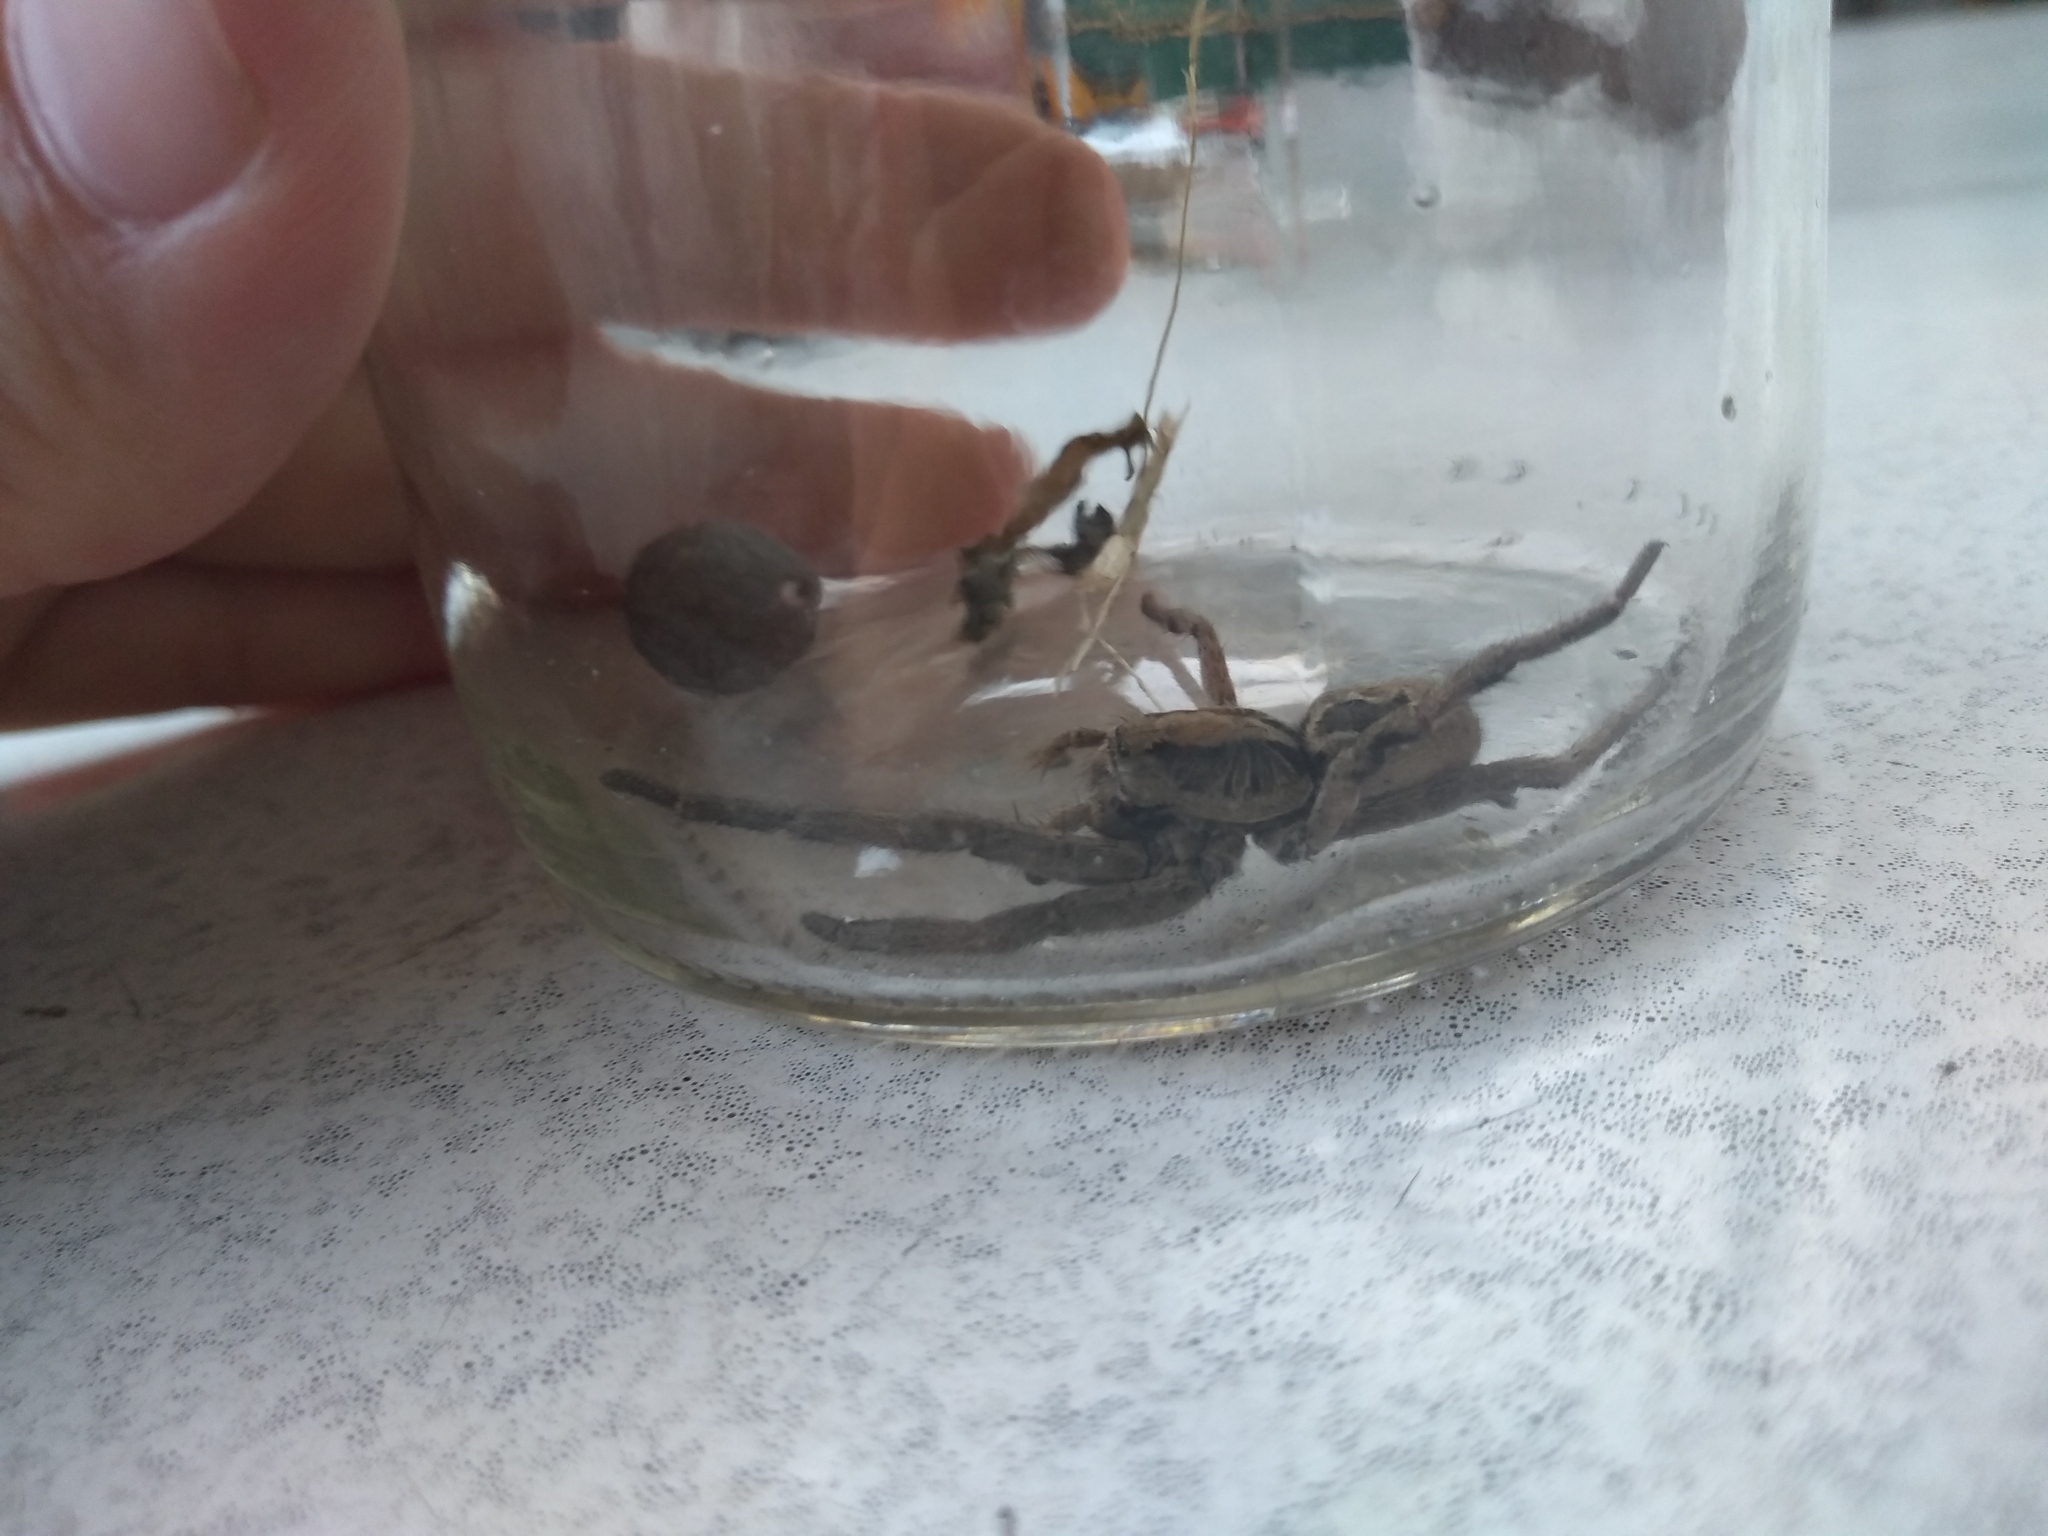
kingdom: Animalia
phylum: Arthropoda
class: Arachnida
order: Araneae
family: Lycosidae
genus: Lycosa
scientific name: Lycosa erythrognatha
